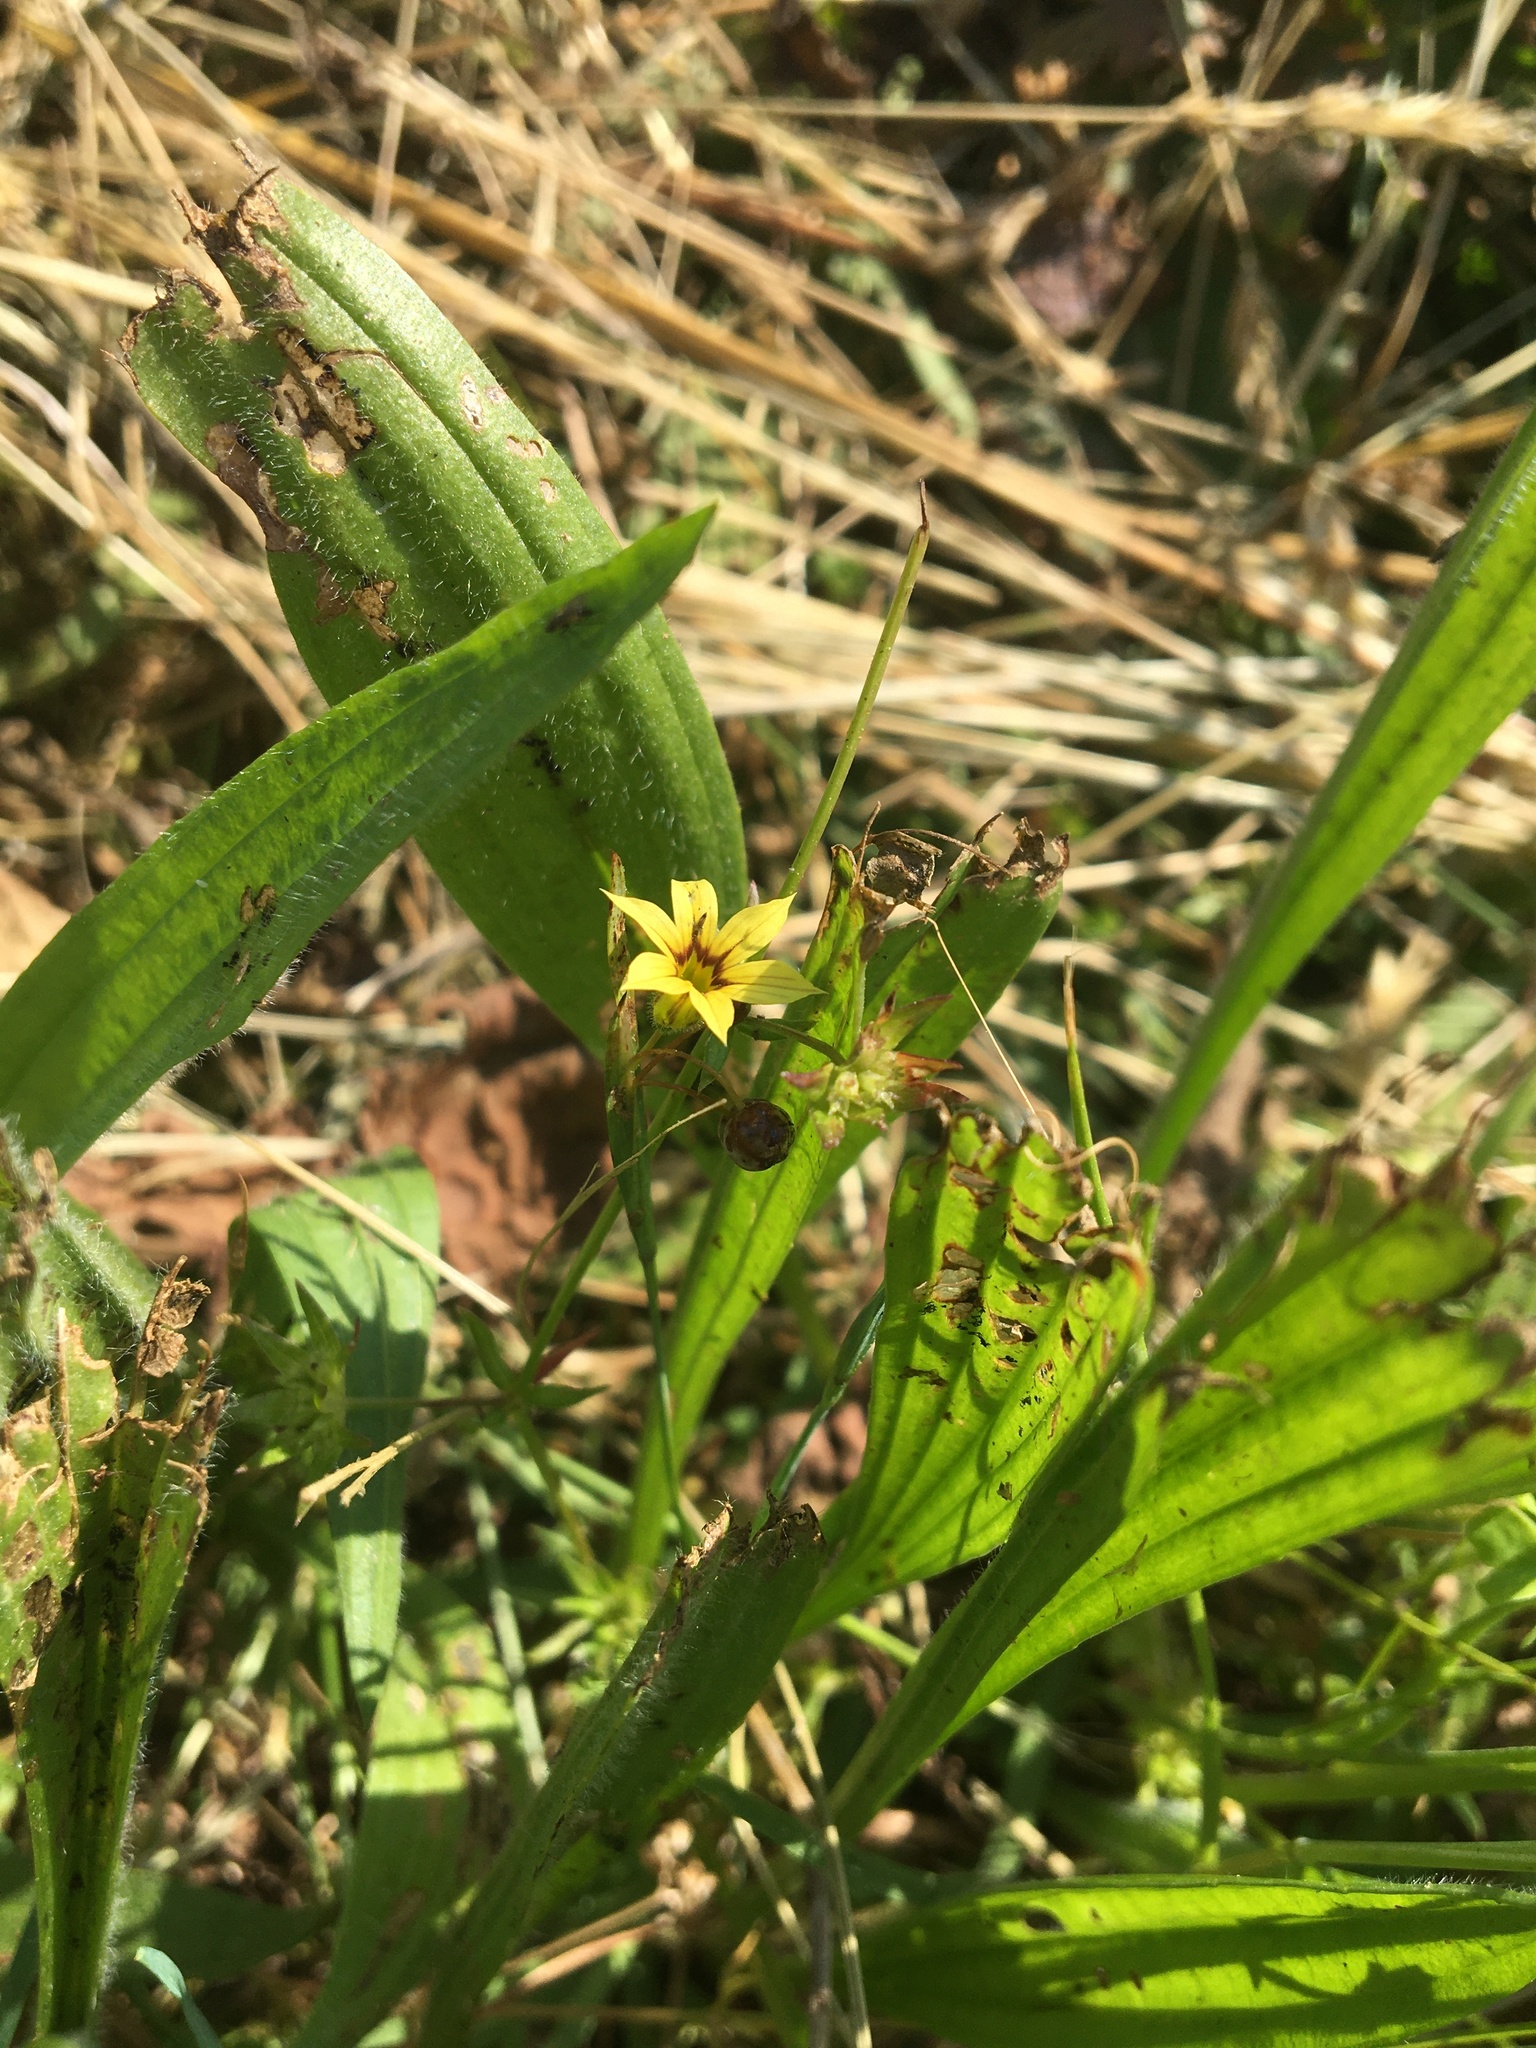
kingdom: Plantae
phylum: Tracheophyta
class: Liliopsida
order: Asparagales
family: Iridaceae
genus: Sisyrinchium
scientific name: Sisyrinchium micranthum
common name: Bermuda pigroot
